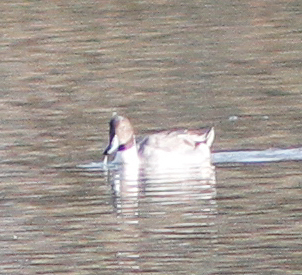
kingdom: Animalia
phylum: Chordata
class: Aves
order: Anseriformes
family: Anatidae
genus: Anas
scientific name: Anas acuta
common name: Northern pintail
